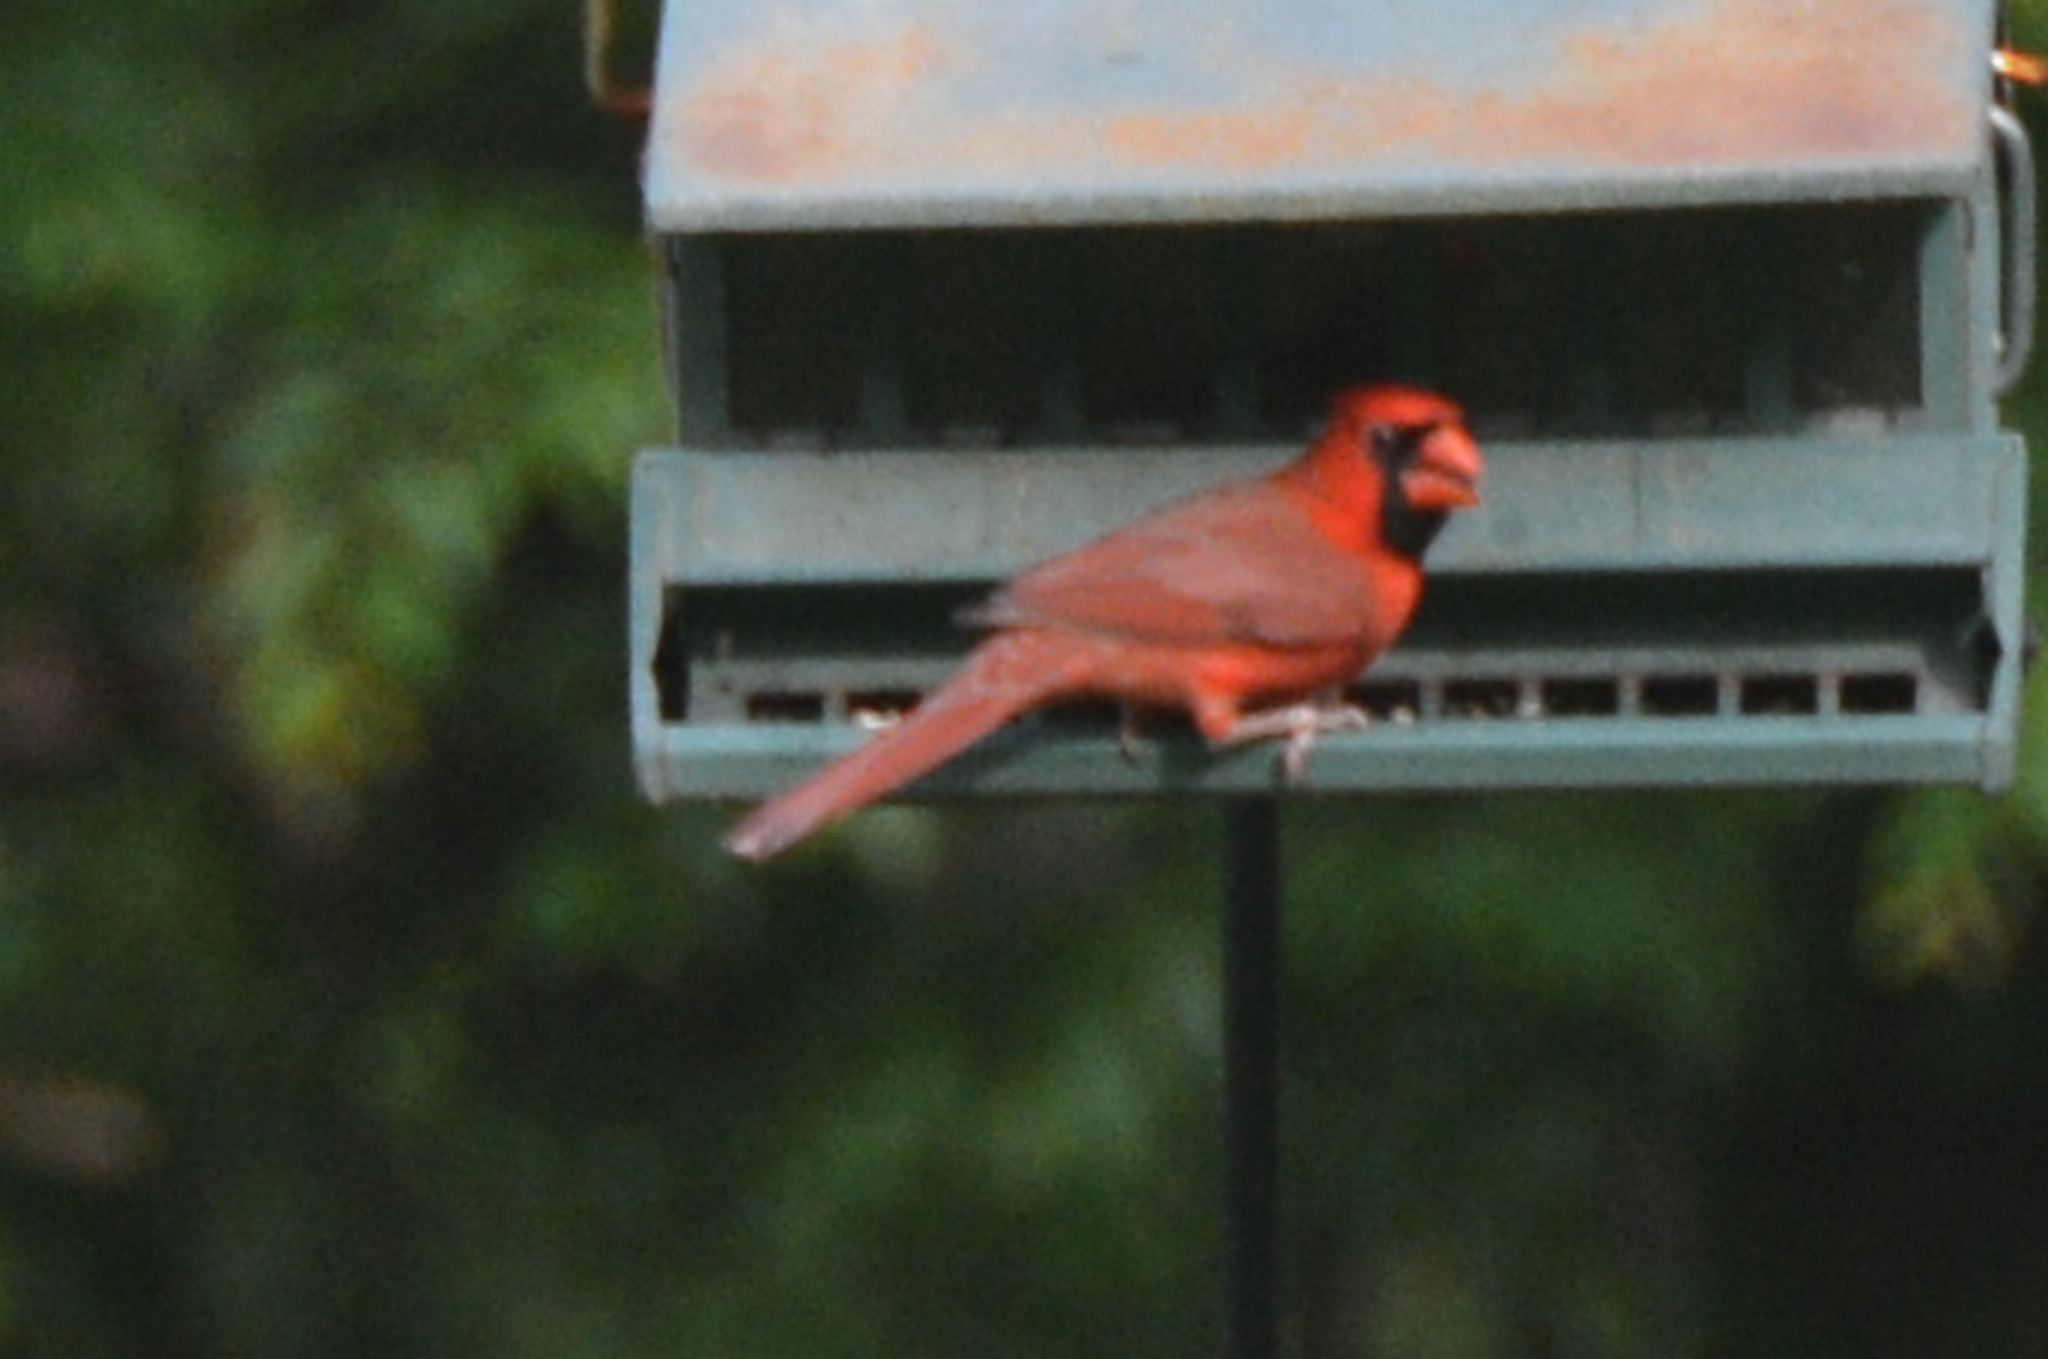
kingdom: Animalia
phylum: Chordata
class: Aves
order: Passeriformes
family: Cardinalidae
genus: Cardinalis
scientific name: Cardinalis cardinalis
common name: Northern cardinal
